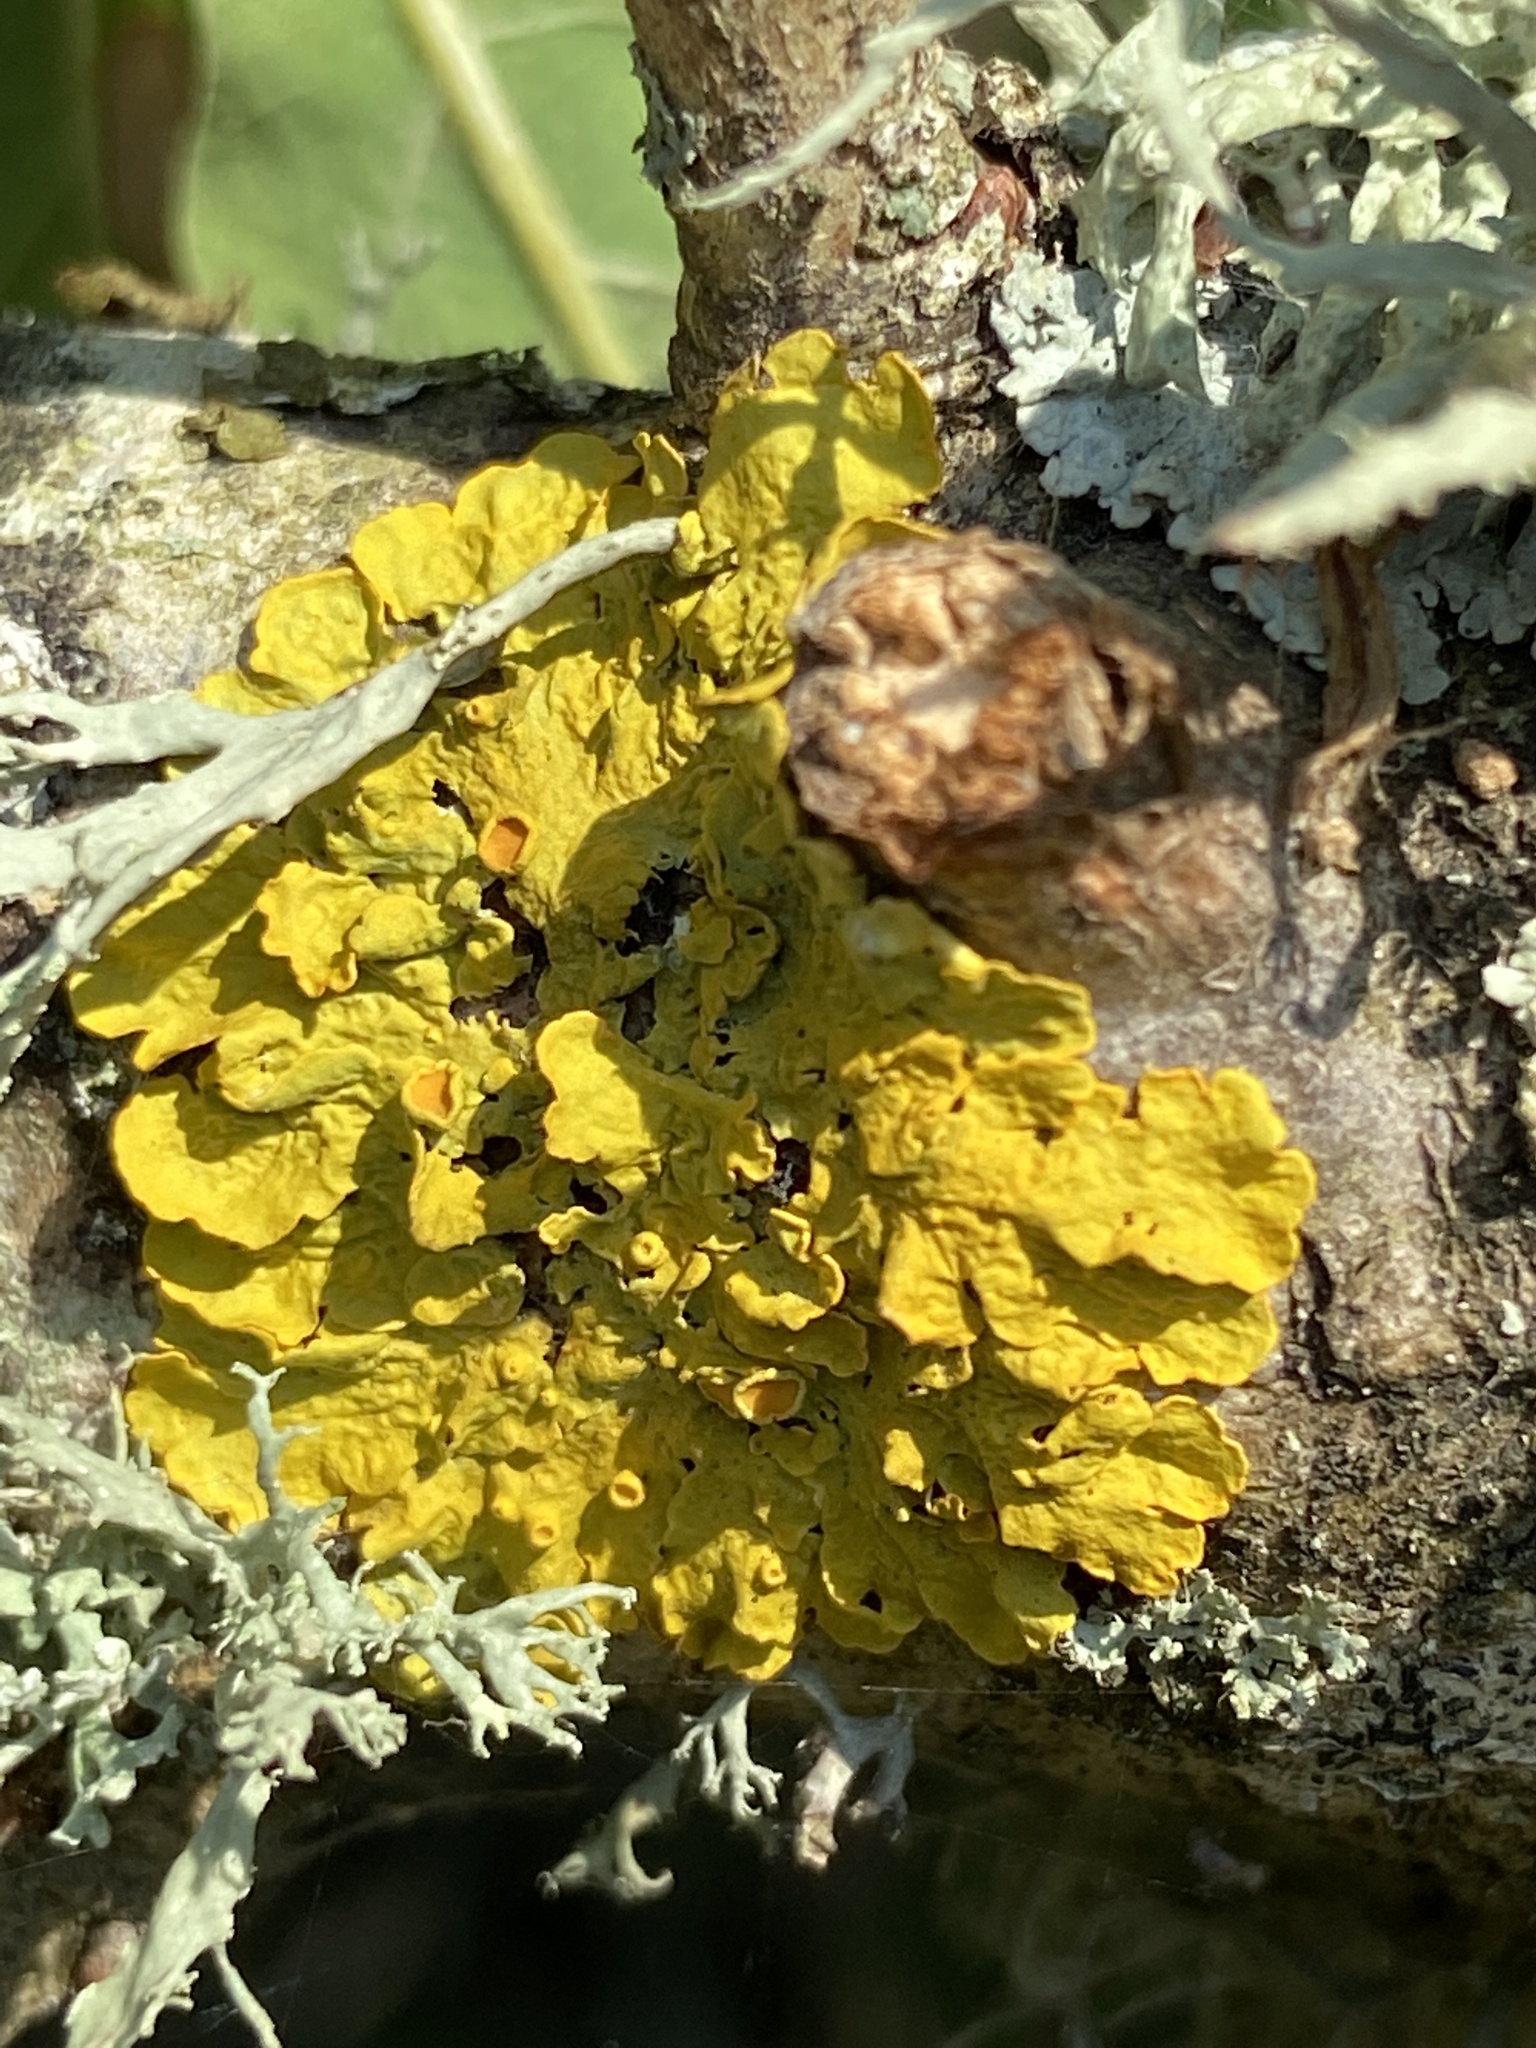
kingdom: Fungi
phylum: Ascomycota
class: Lecanoromycetes
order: Teloschistales
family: Teloschistaceae
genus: Xanthoria
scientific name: Xanthoria parietina
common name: Common orange lichen
